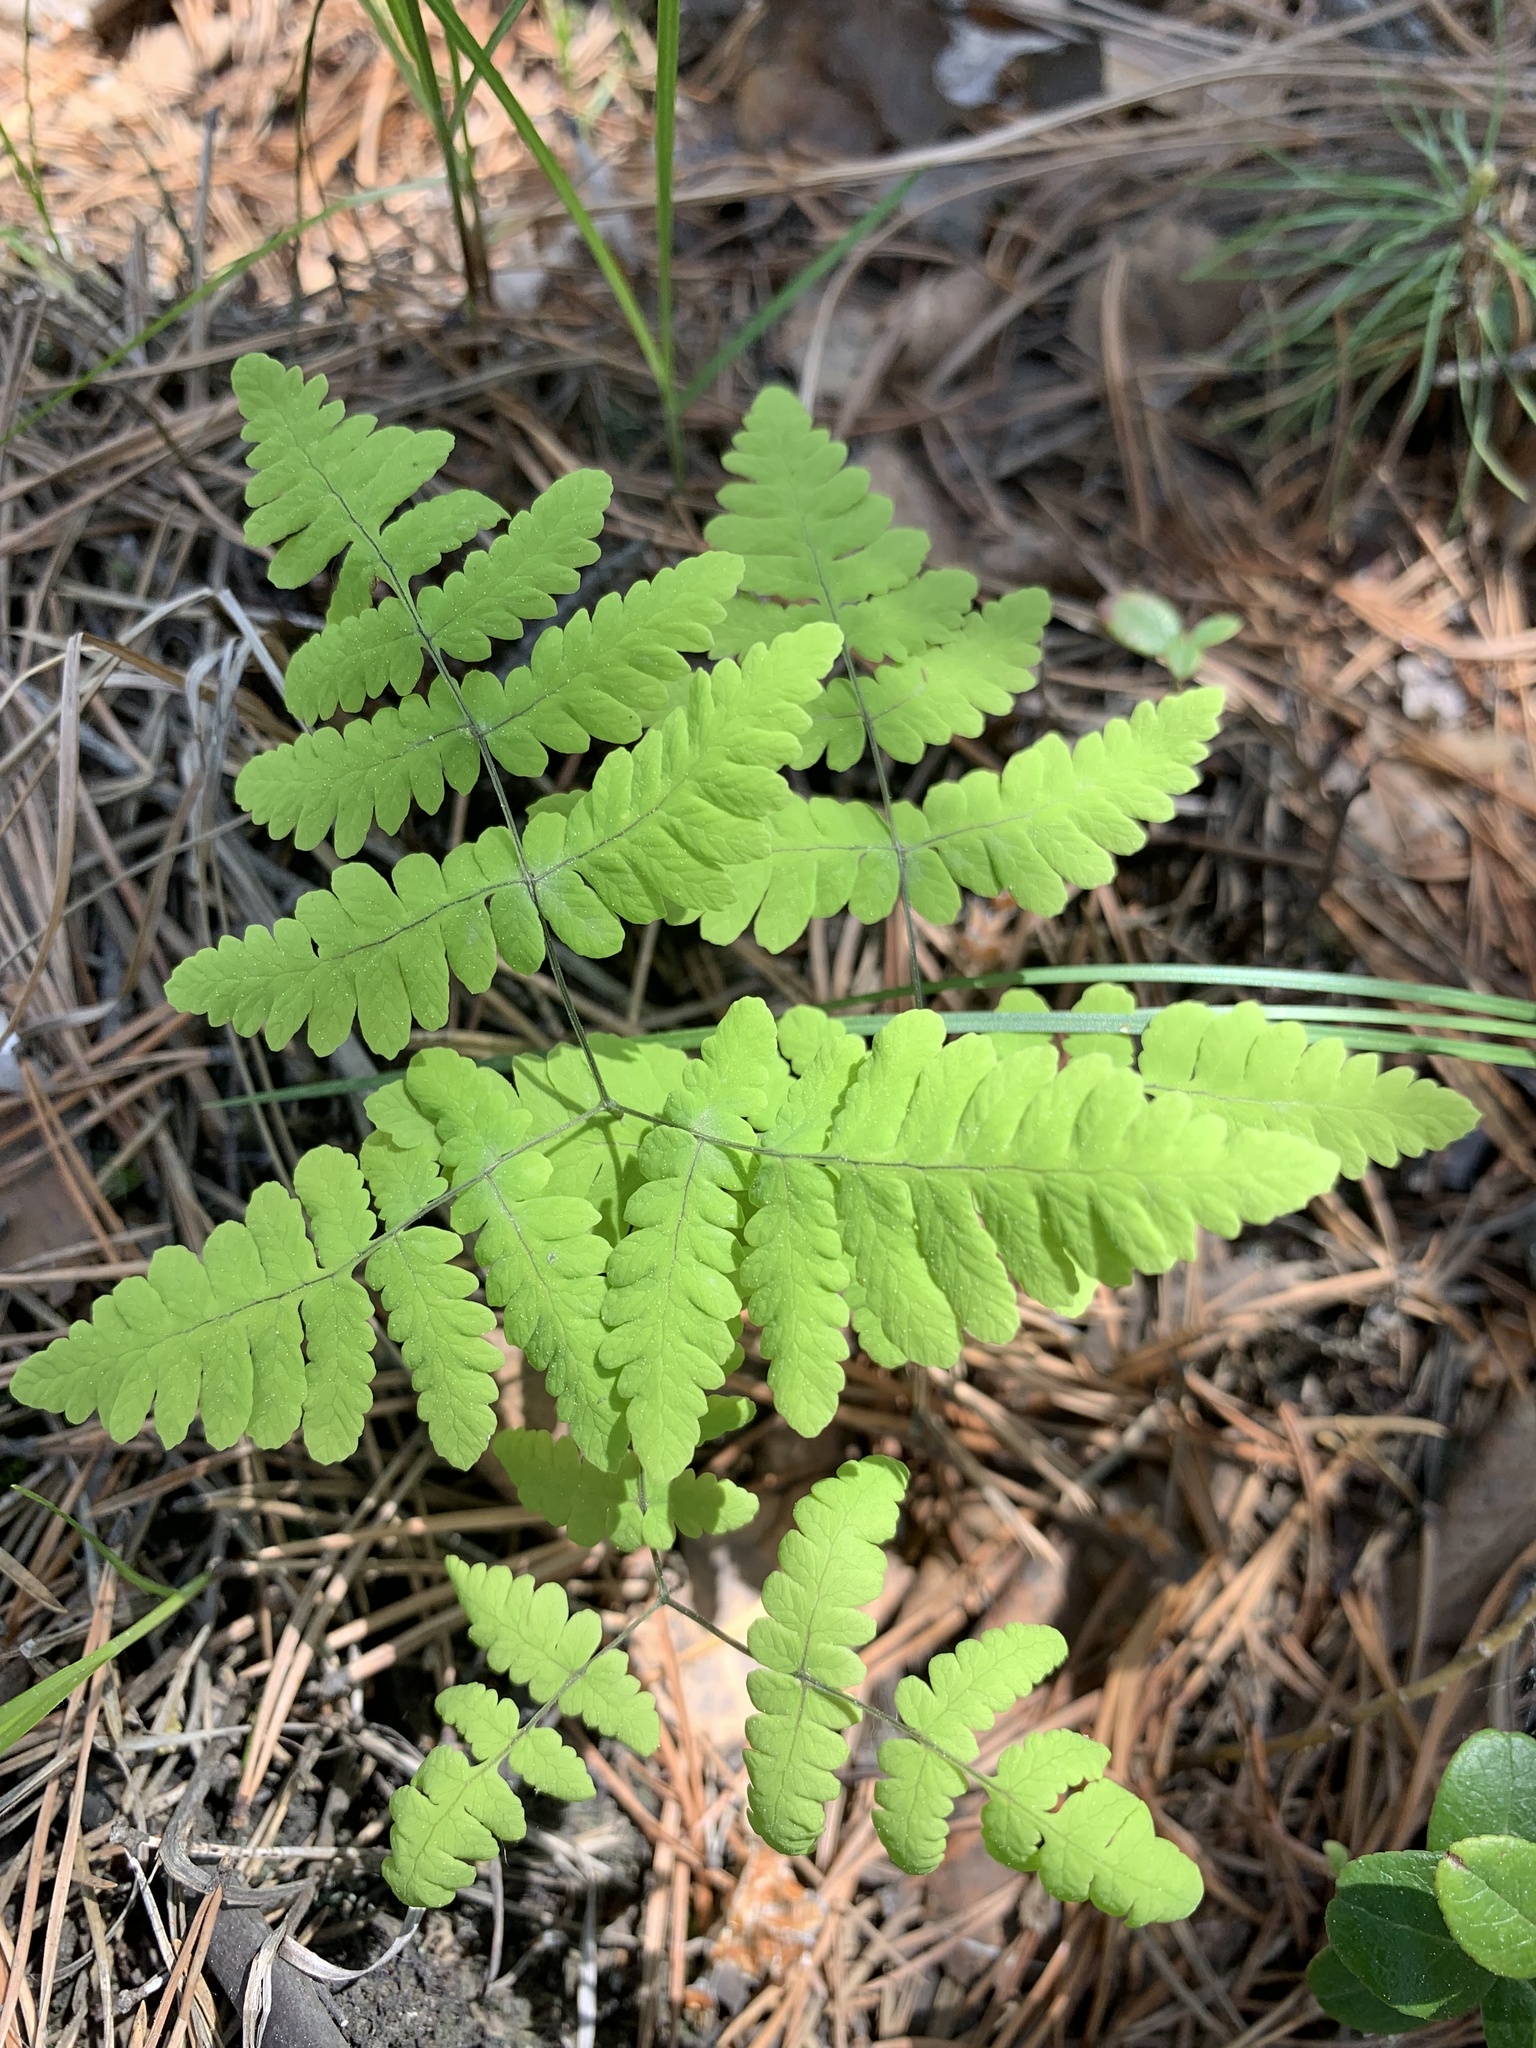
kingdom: Plantae
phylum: Tracheophyta
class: Polypodiopsida
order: Polypodiales
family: Cystopteridaceae
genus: Gymnocarpium
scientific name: Gymnocarpium dryopteris
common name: Oak fern
